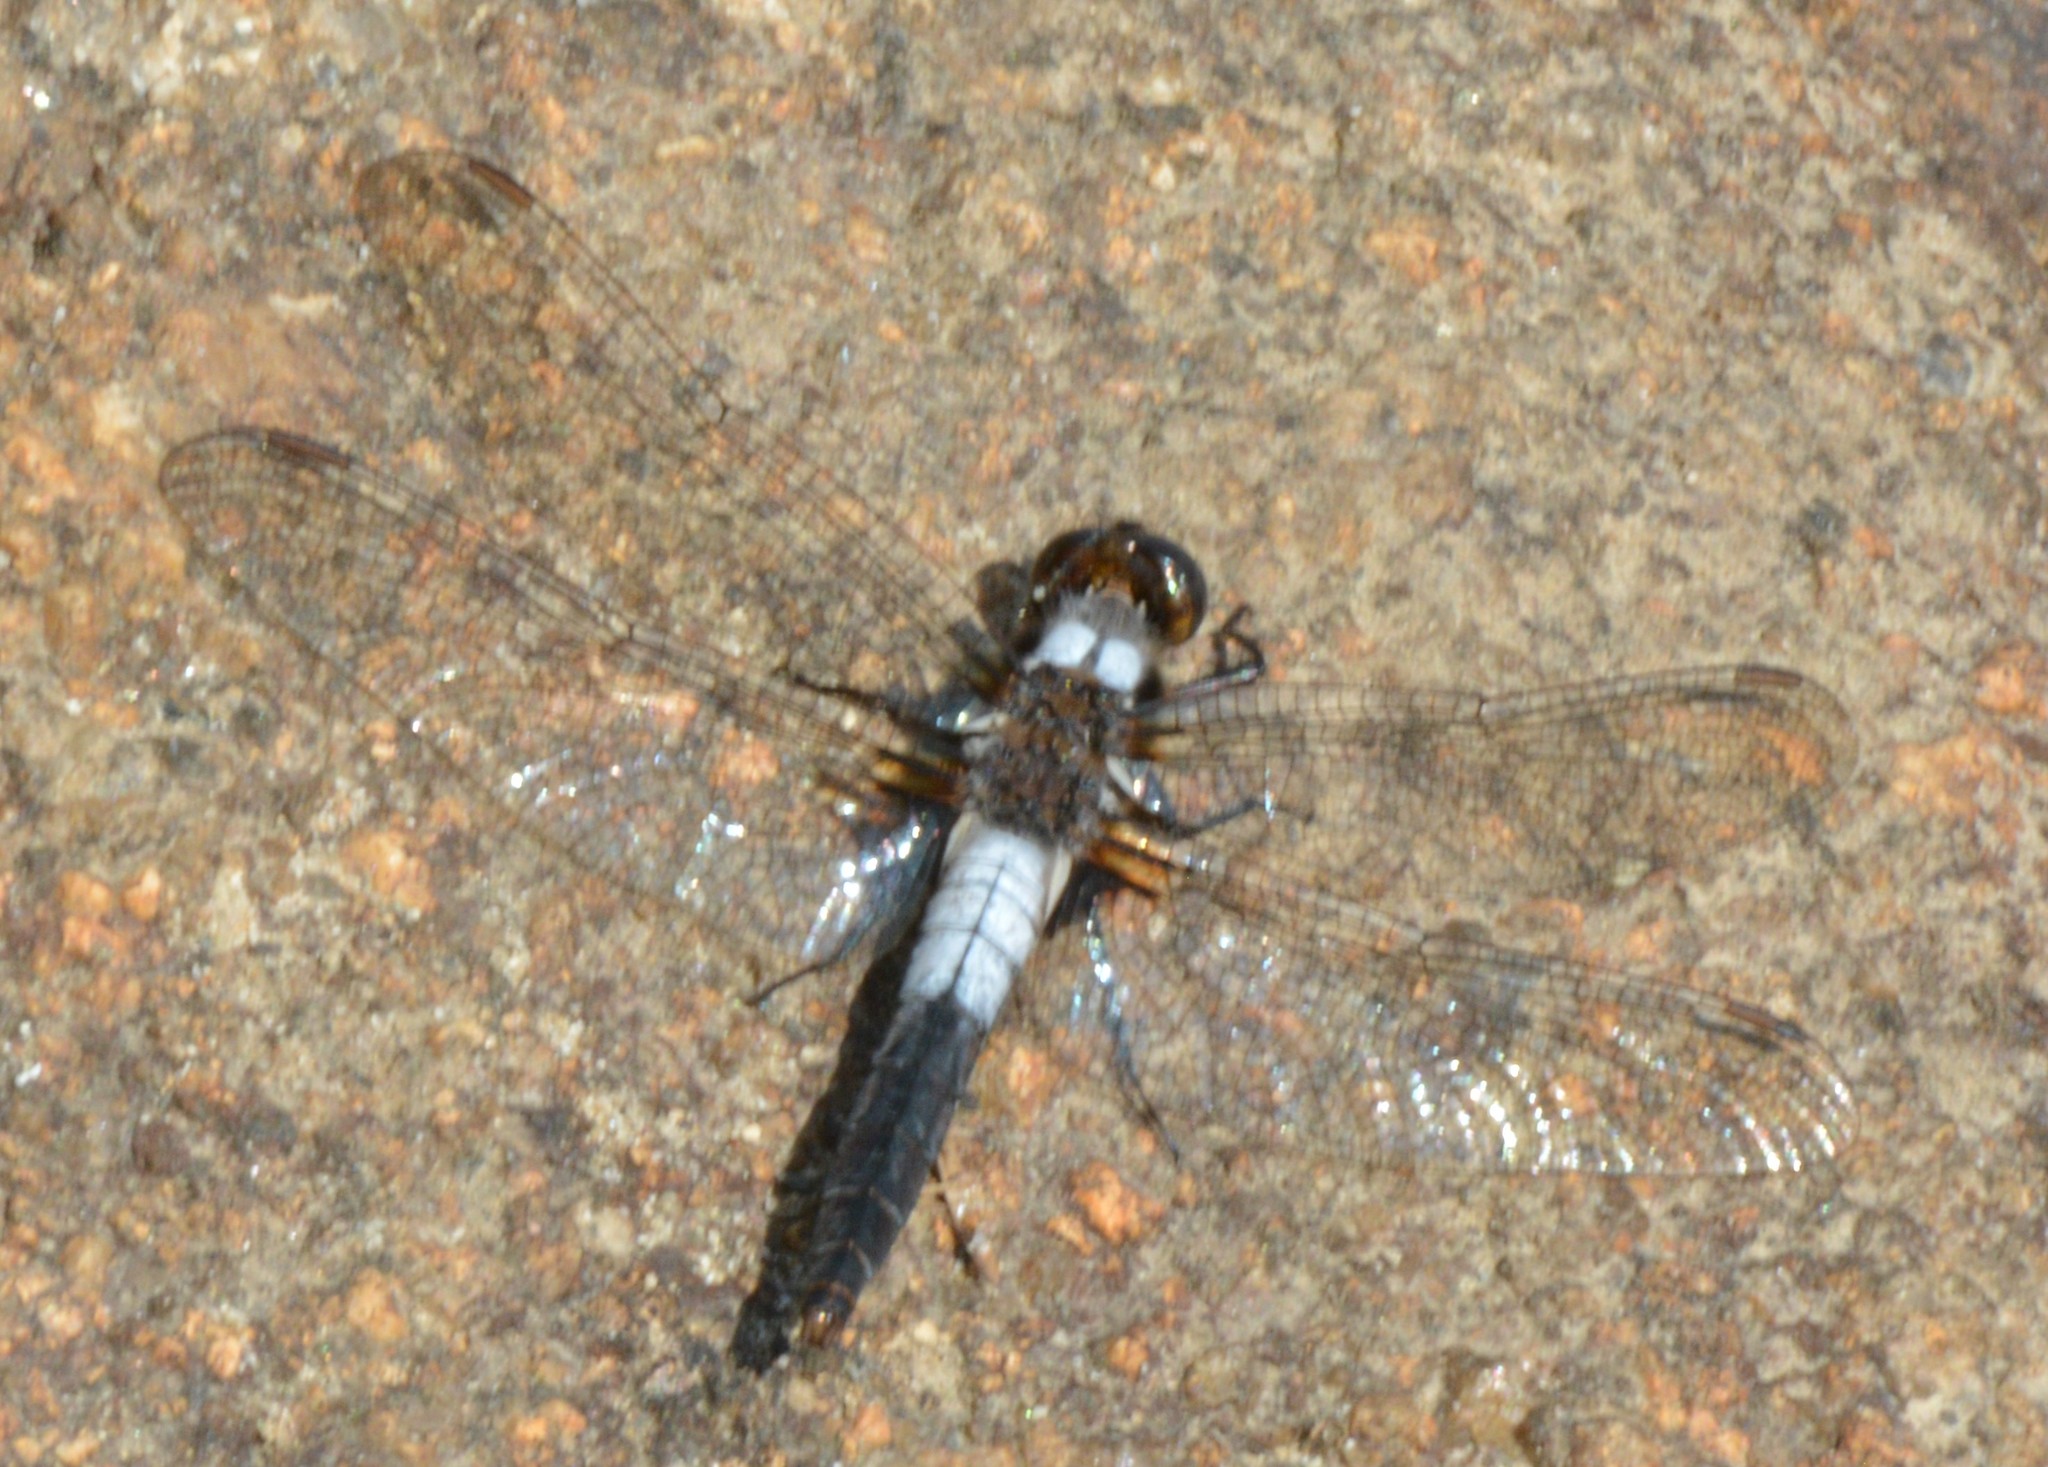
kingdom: Animalia
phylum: Arthropoda
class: Insecta
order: Odonata
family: Libellulidae
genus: Ladona
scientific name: Ladona julia
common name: Chalk-fronted corporal
